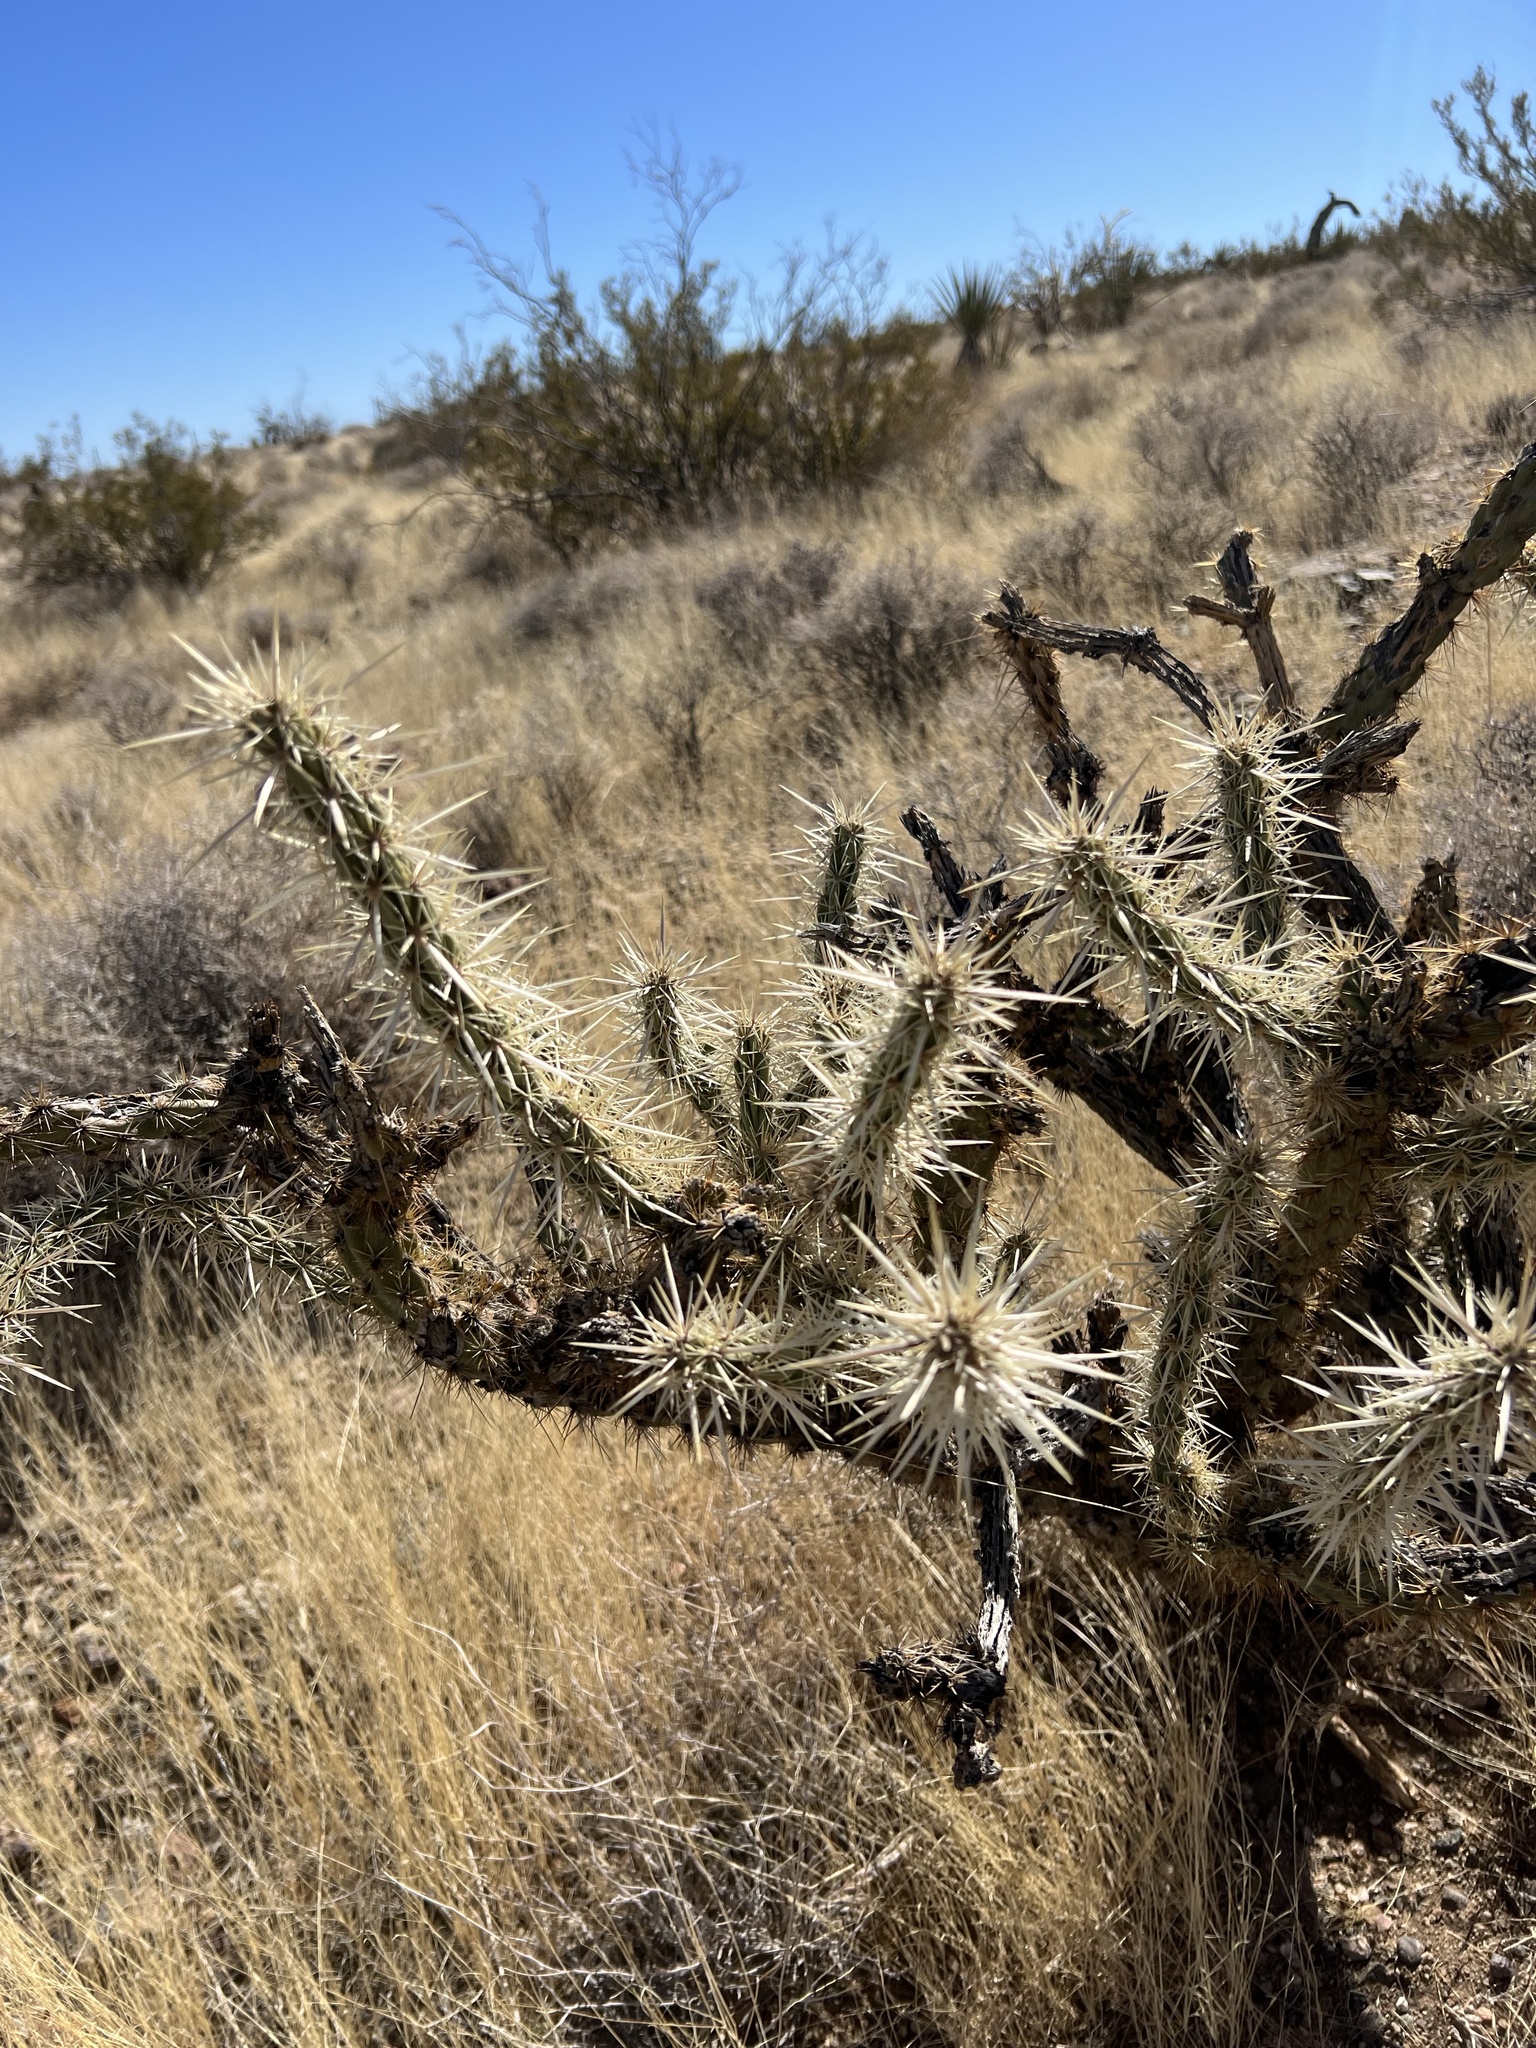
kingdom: Plantae
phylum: Tracheophyta
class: Magnoliopsida
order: Caryophyllales
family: Cactaceae
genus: Cylindropuntia
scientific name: Cylindropuntia acanthocarpa
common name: Buckhorn cholla
